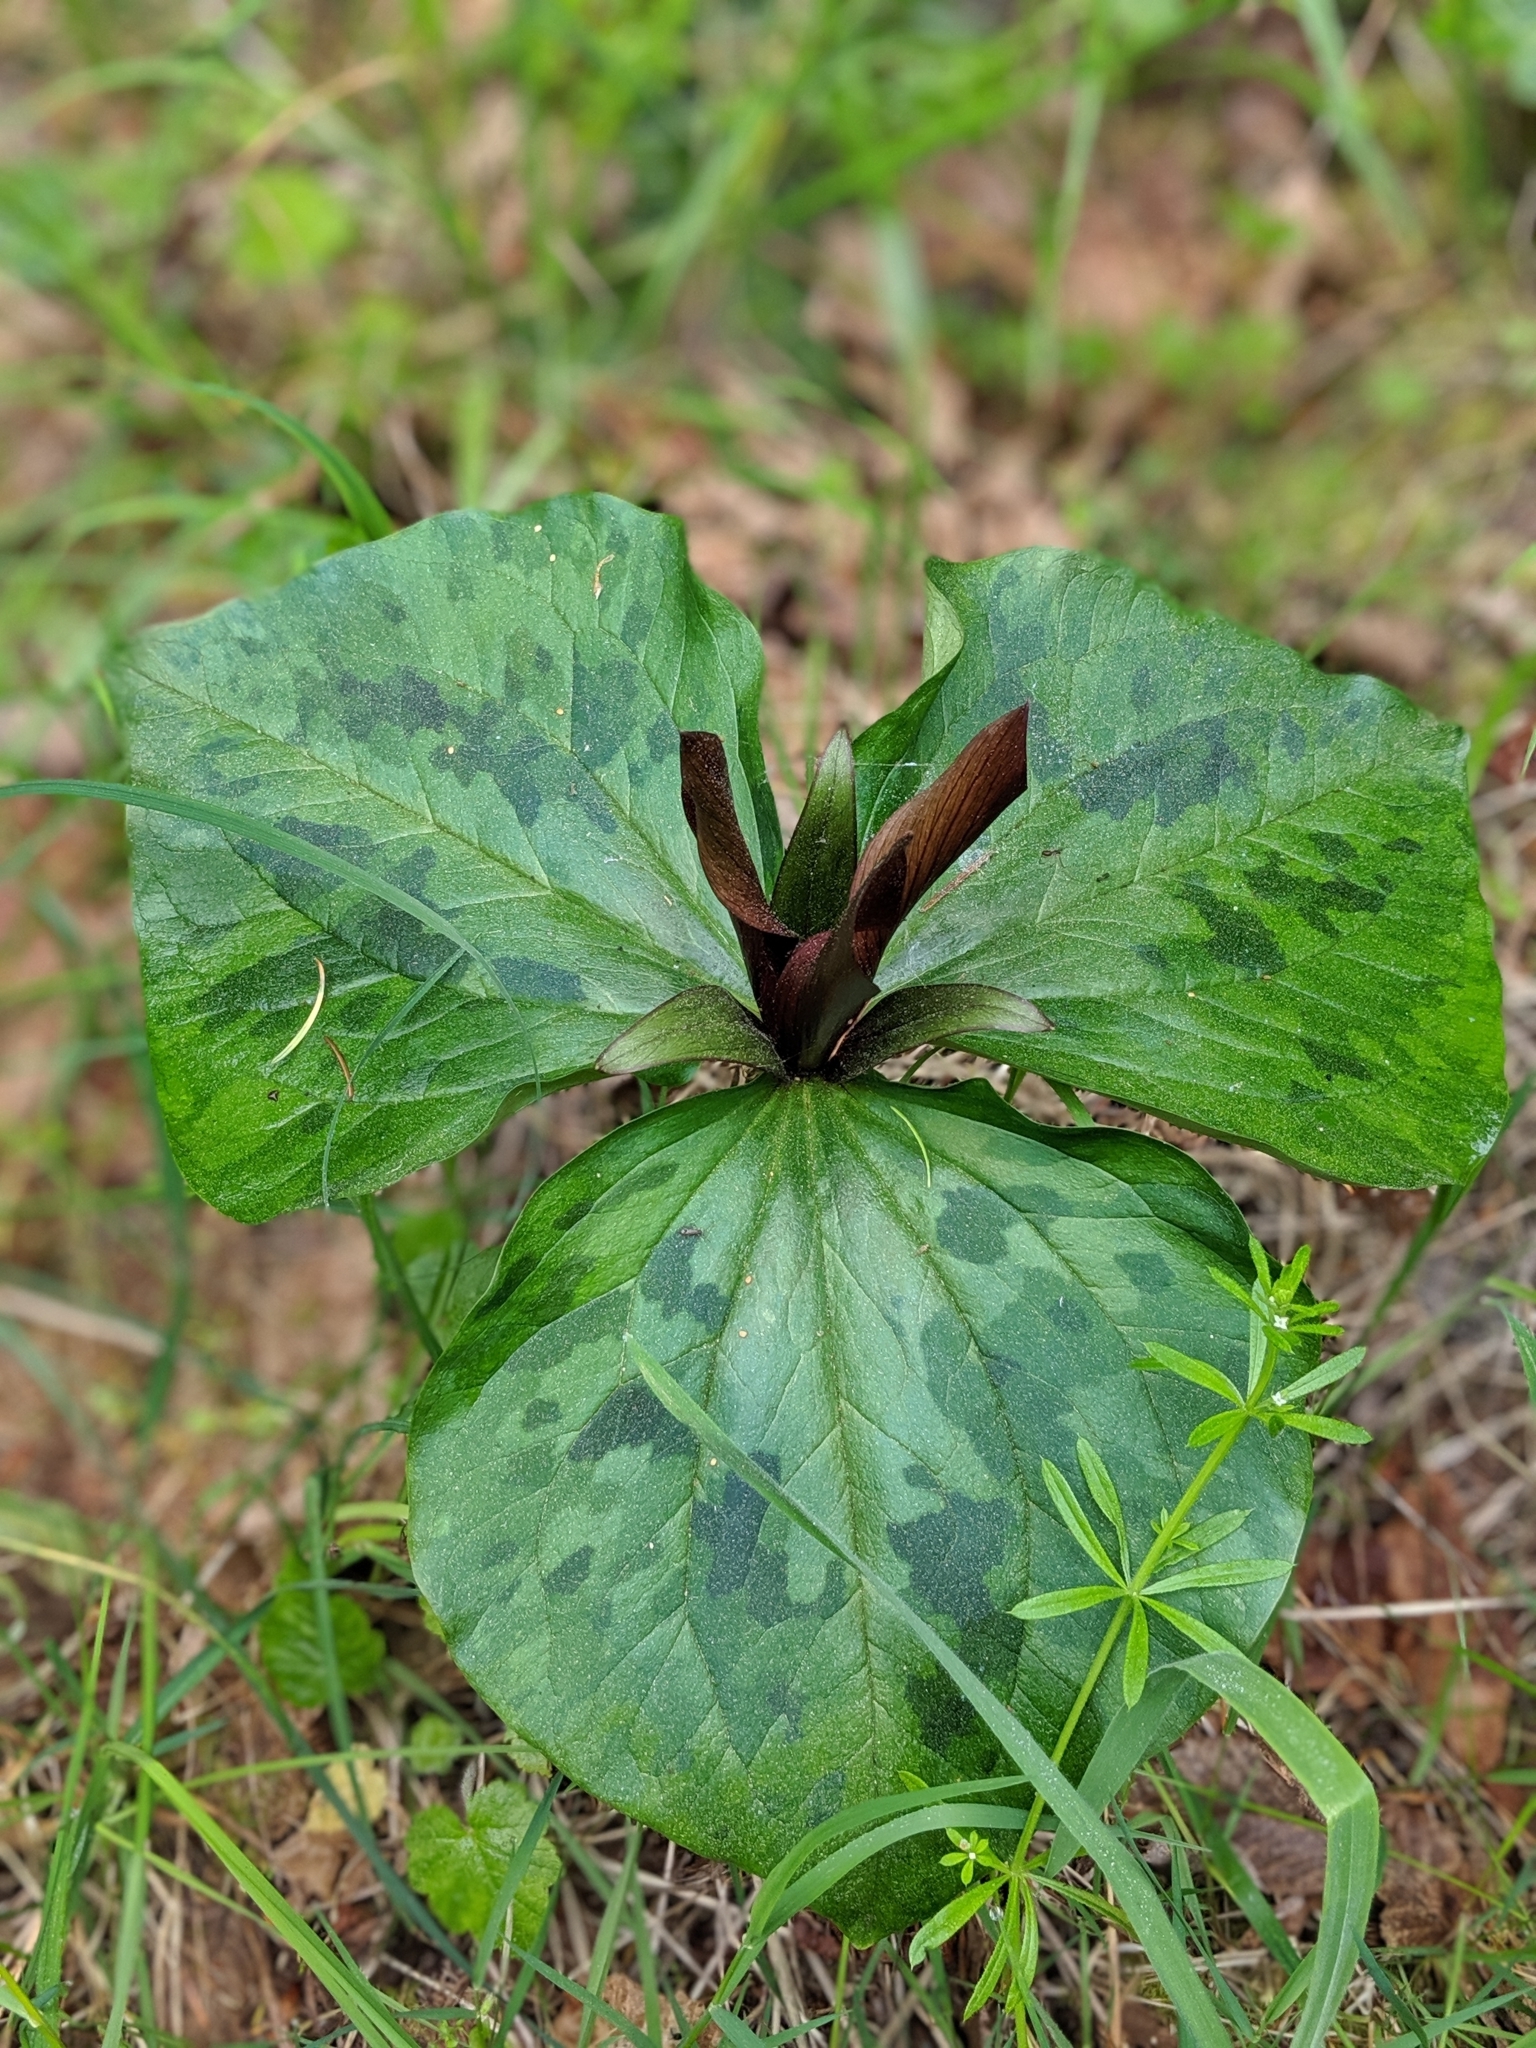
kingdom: Plantae
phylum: Tracheophyta
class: Liliopsida
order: Liliales
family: Melanthiaceae
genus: Trillium
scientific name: Trillium kurabayashii
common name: Giant purple trillium
